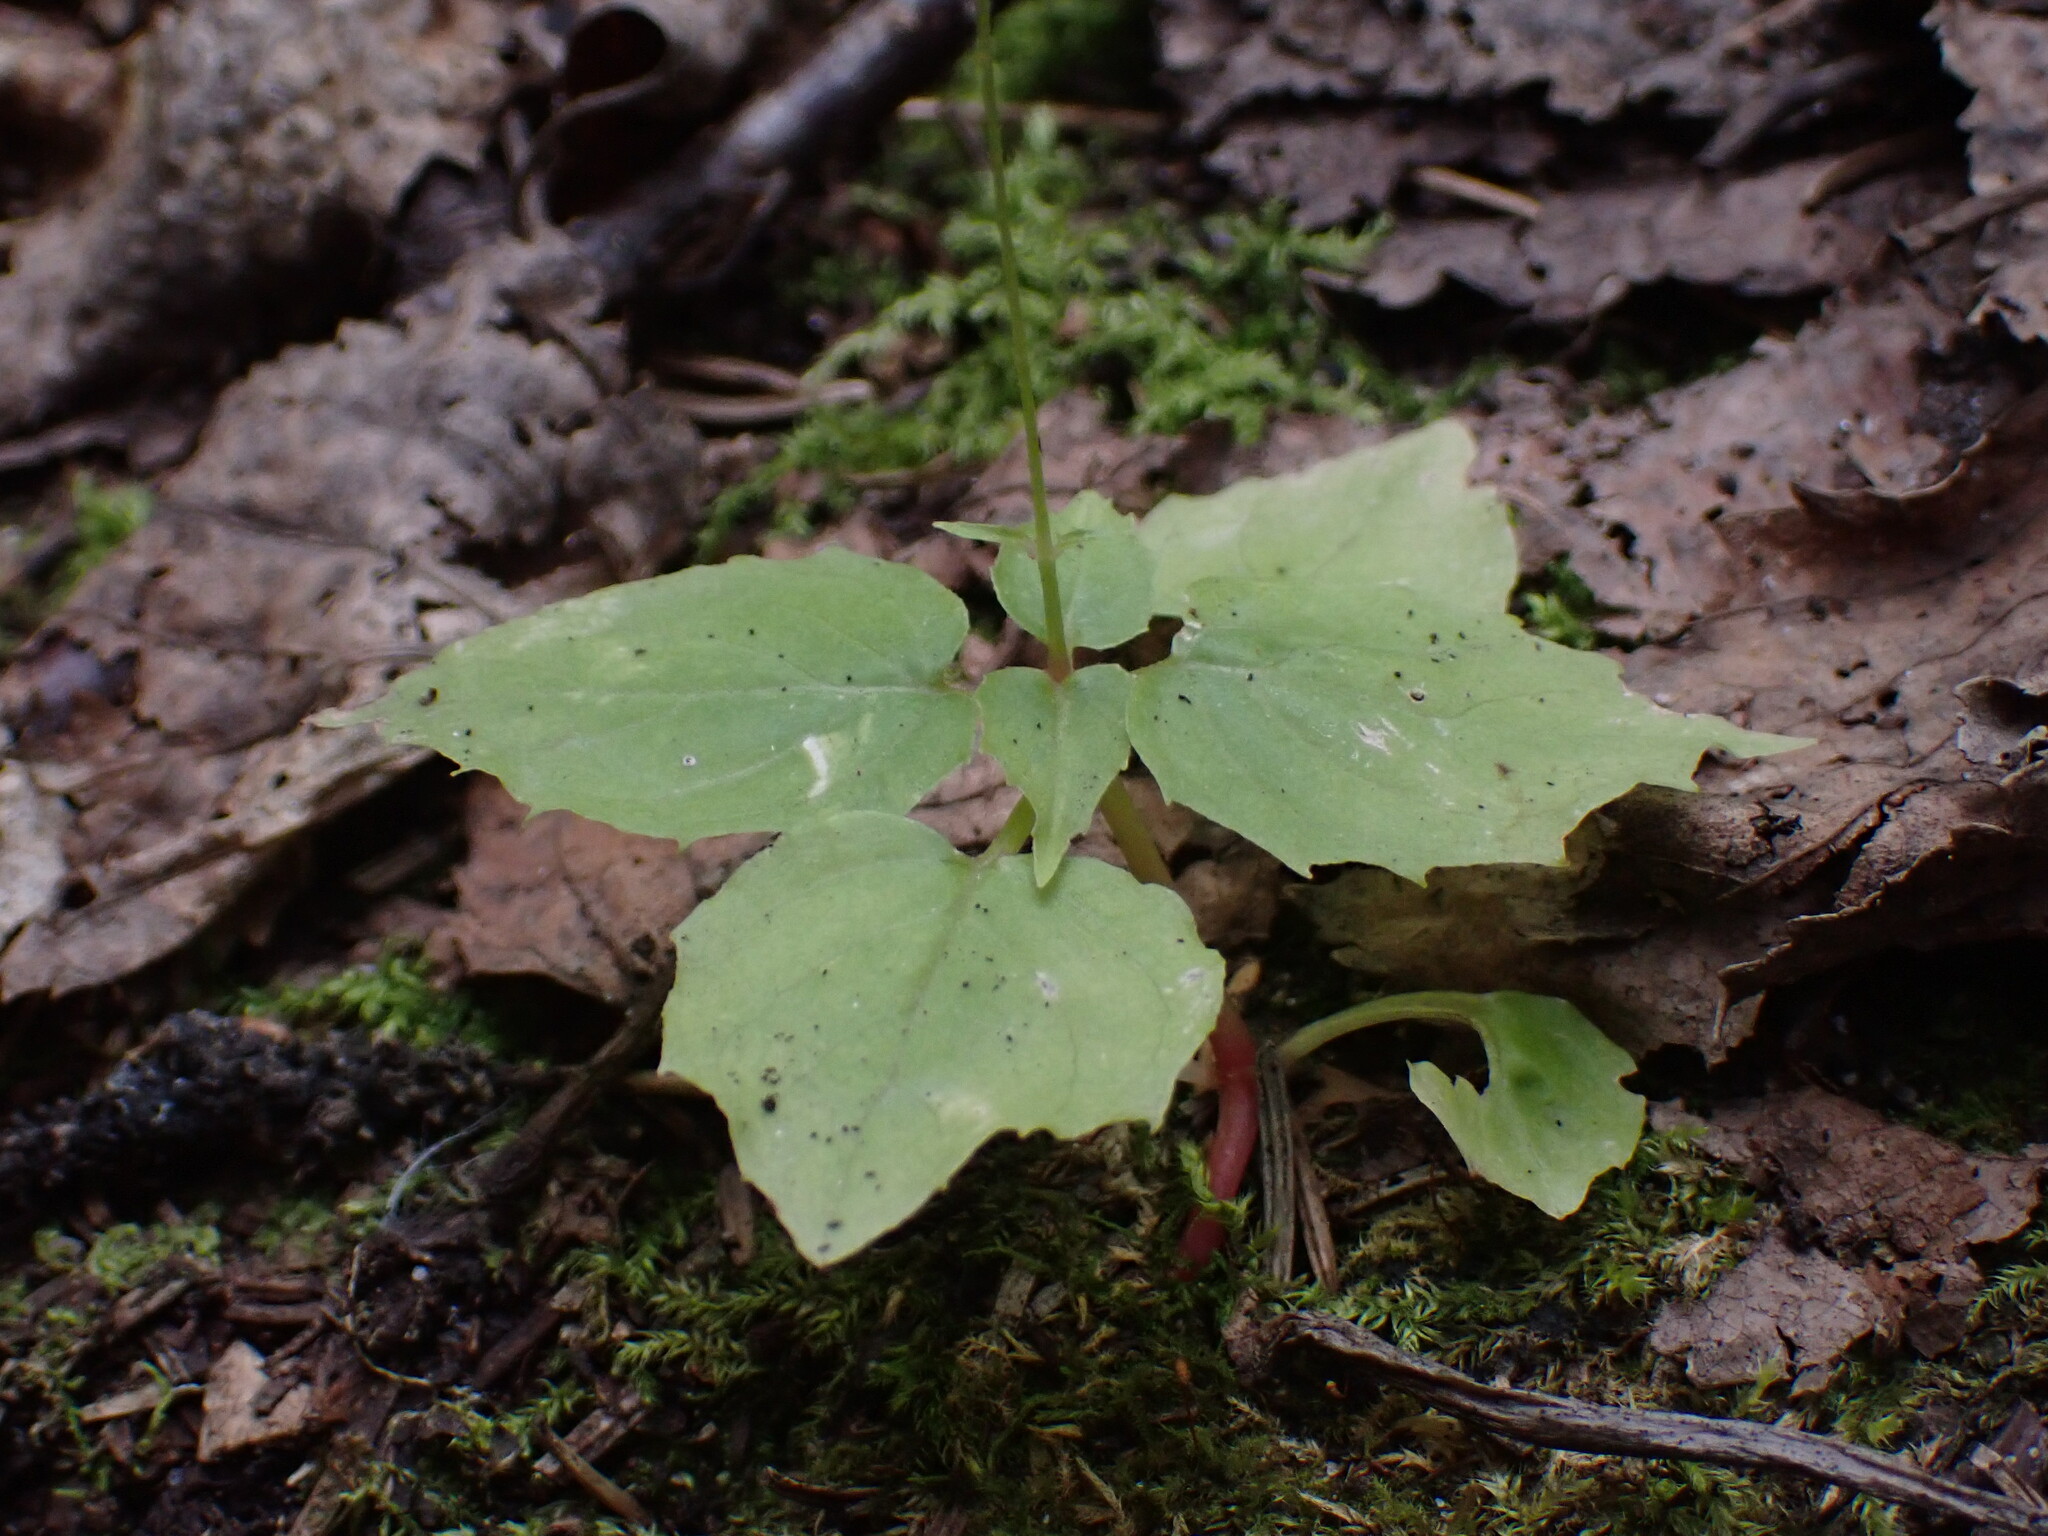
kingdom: Plantae
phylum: Tracheophyta
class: Magnoliopsida
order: Myrtales
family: Onagraceae
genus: Circaea
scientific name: Circaea alpina
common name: Alpine enchanter's-nightshade
